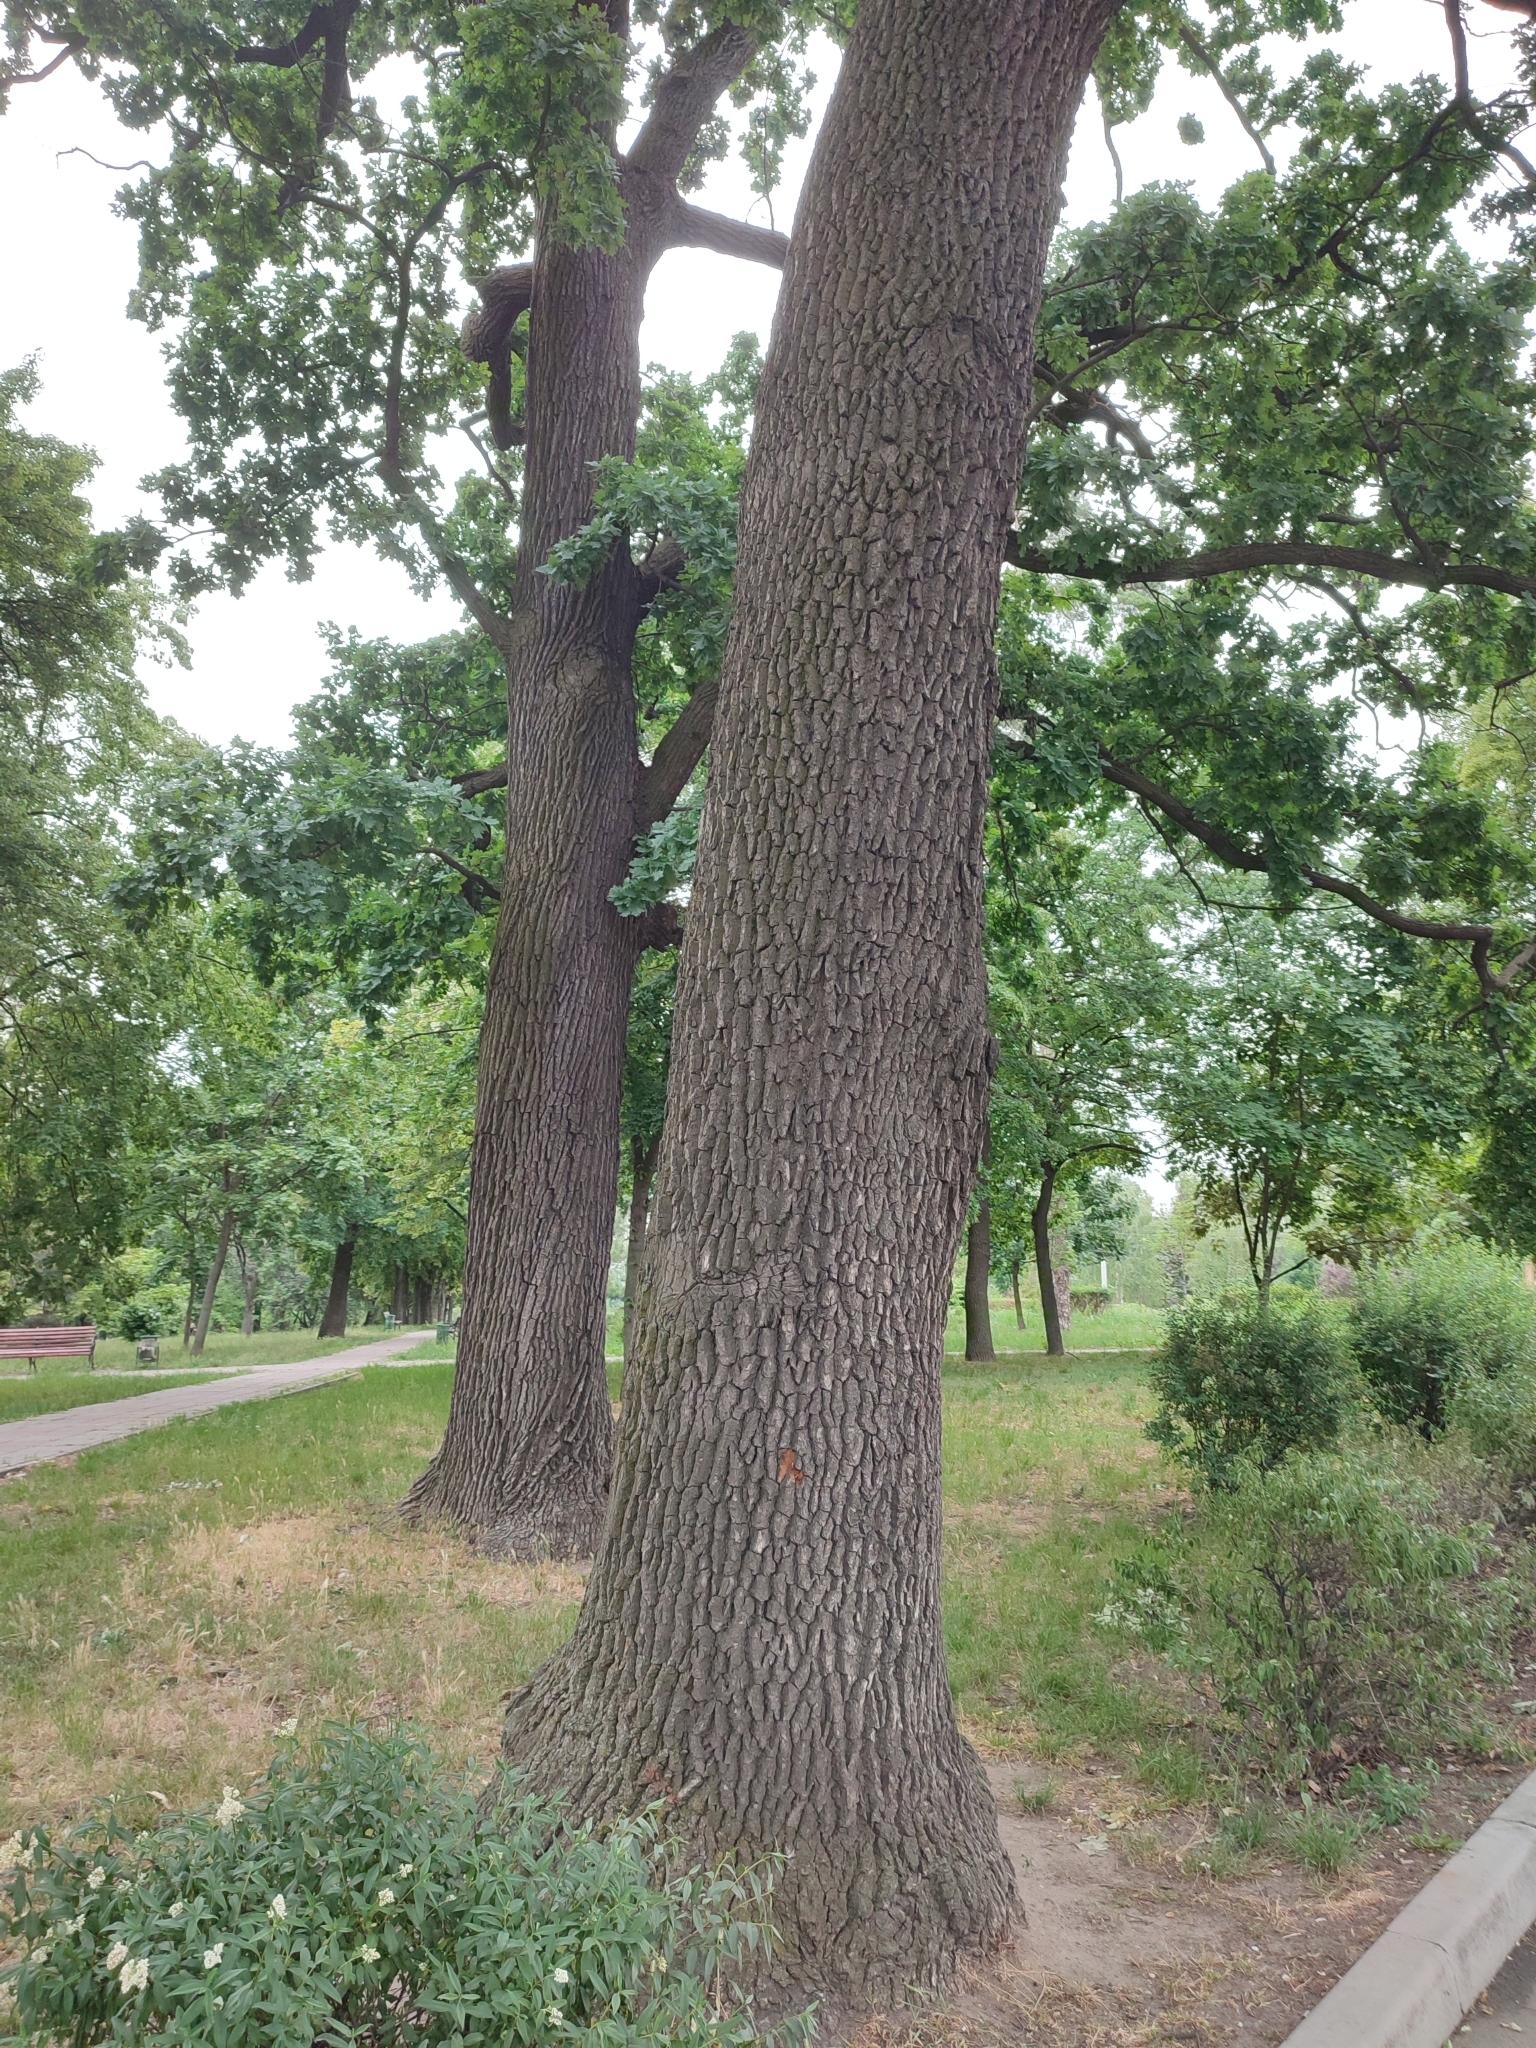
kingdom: Plantae
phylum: Tracheophyta
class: Magnoliopsida
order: Fagales
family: Fagaceae
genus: Quercus
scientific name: Quercus robur
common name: Pedunculate oak
